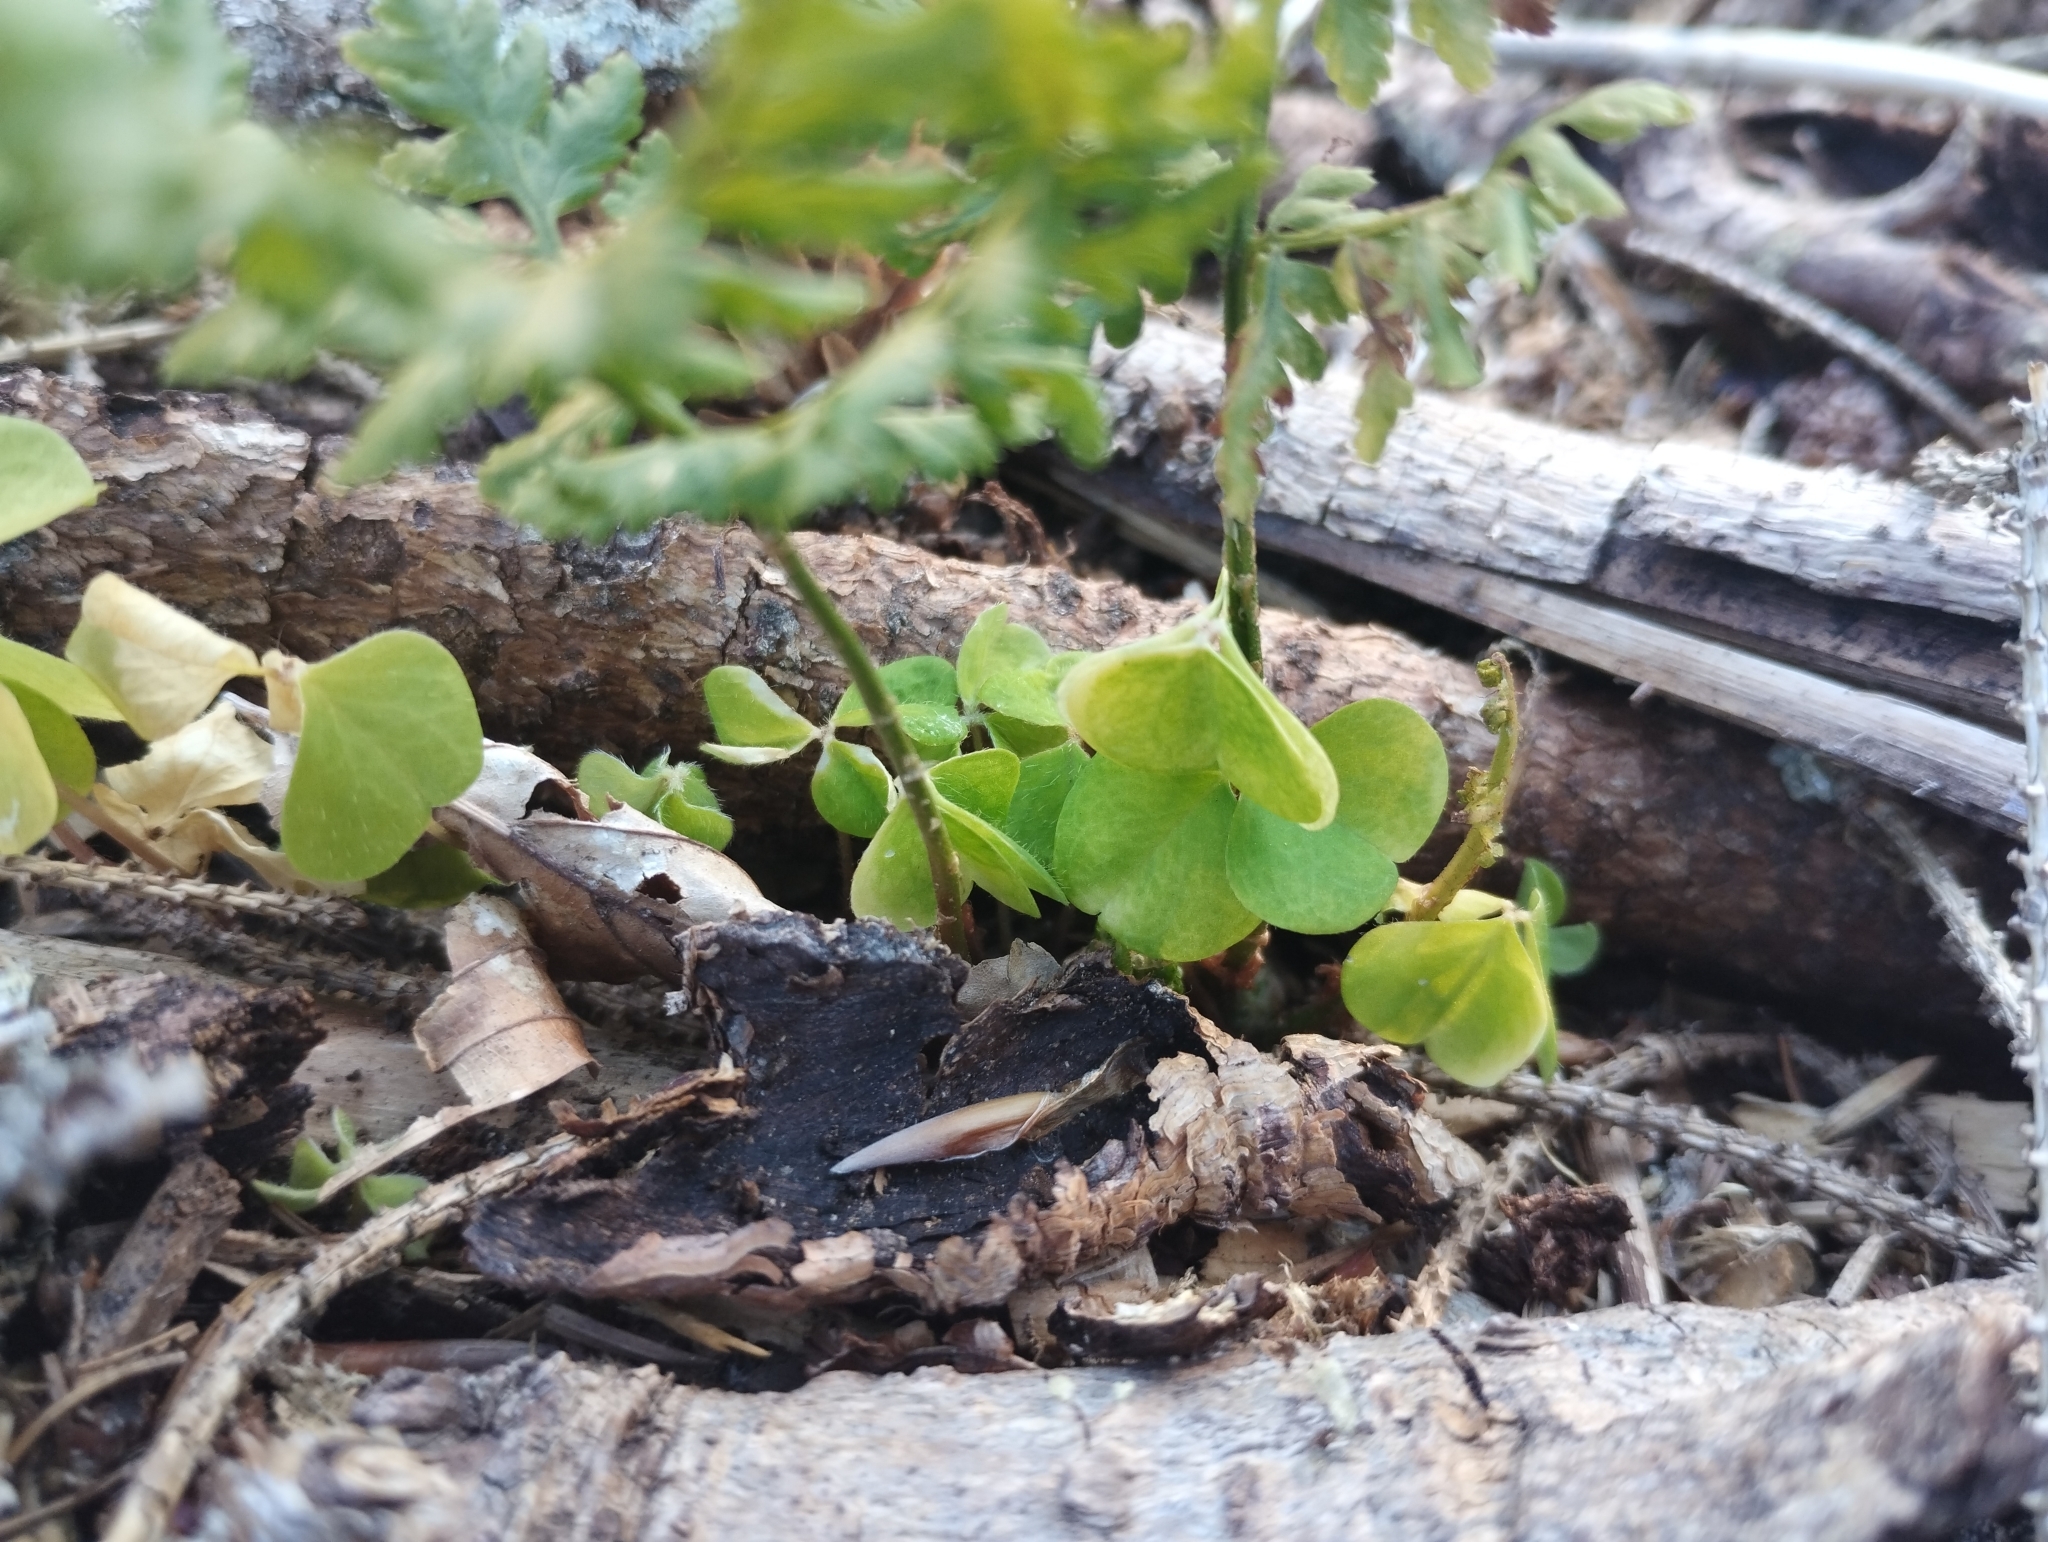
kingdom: Plantae
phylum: Tracheophyta
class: Magnoliopsida
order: Oxalidales
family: Oxalidaceae
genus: Oxalis
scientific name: Oxalis acetosella
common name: Wood-sorrel
